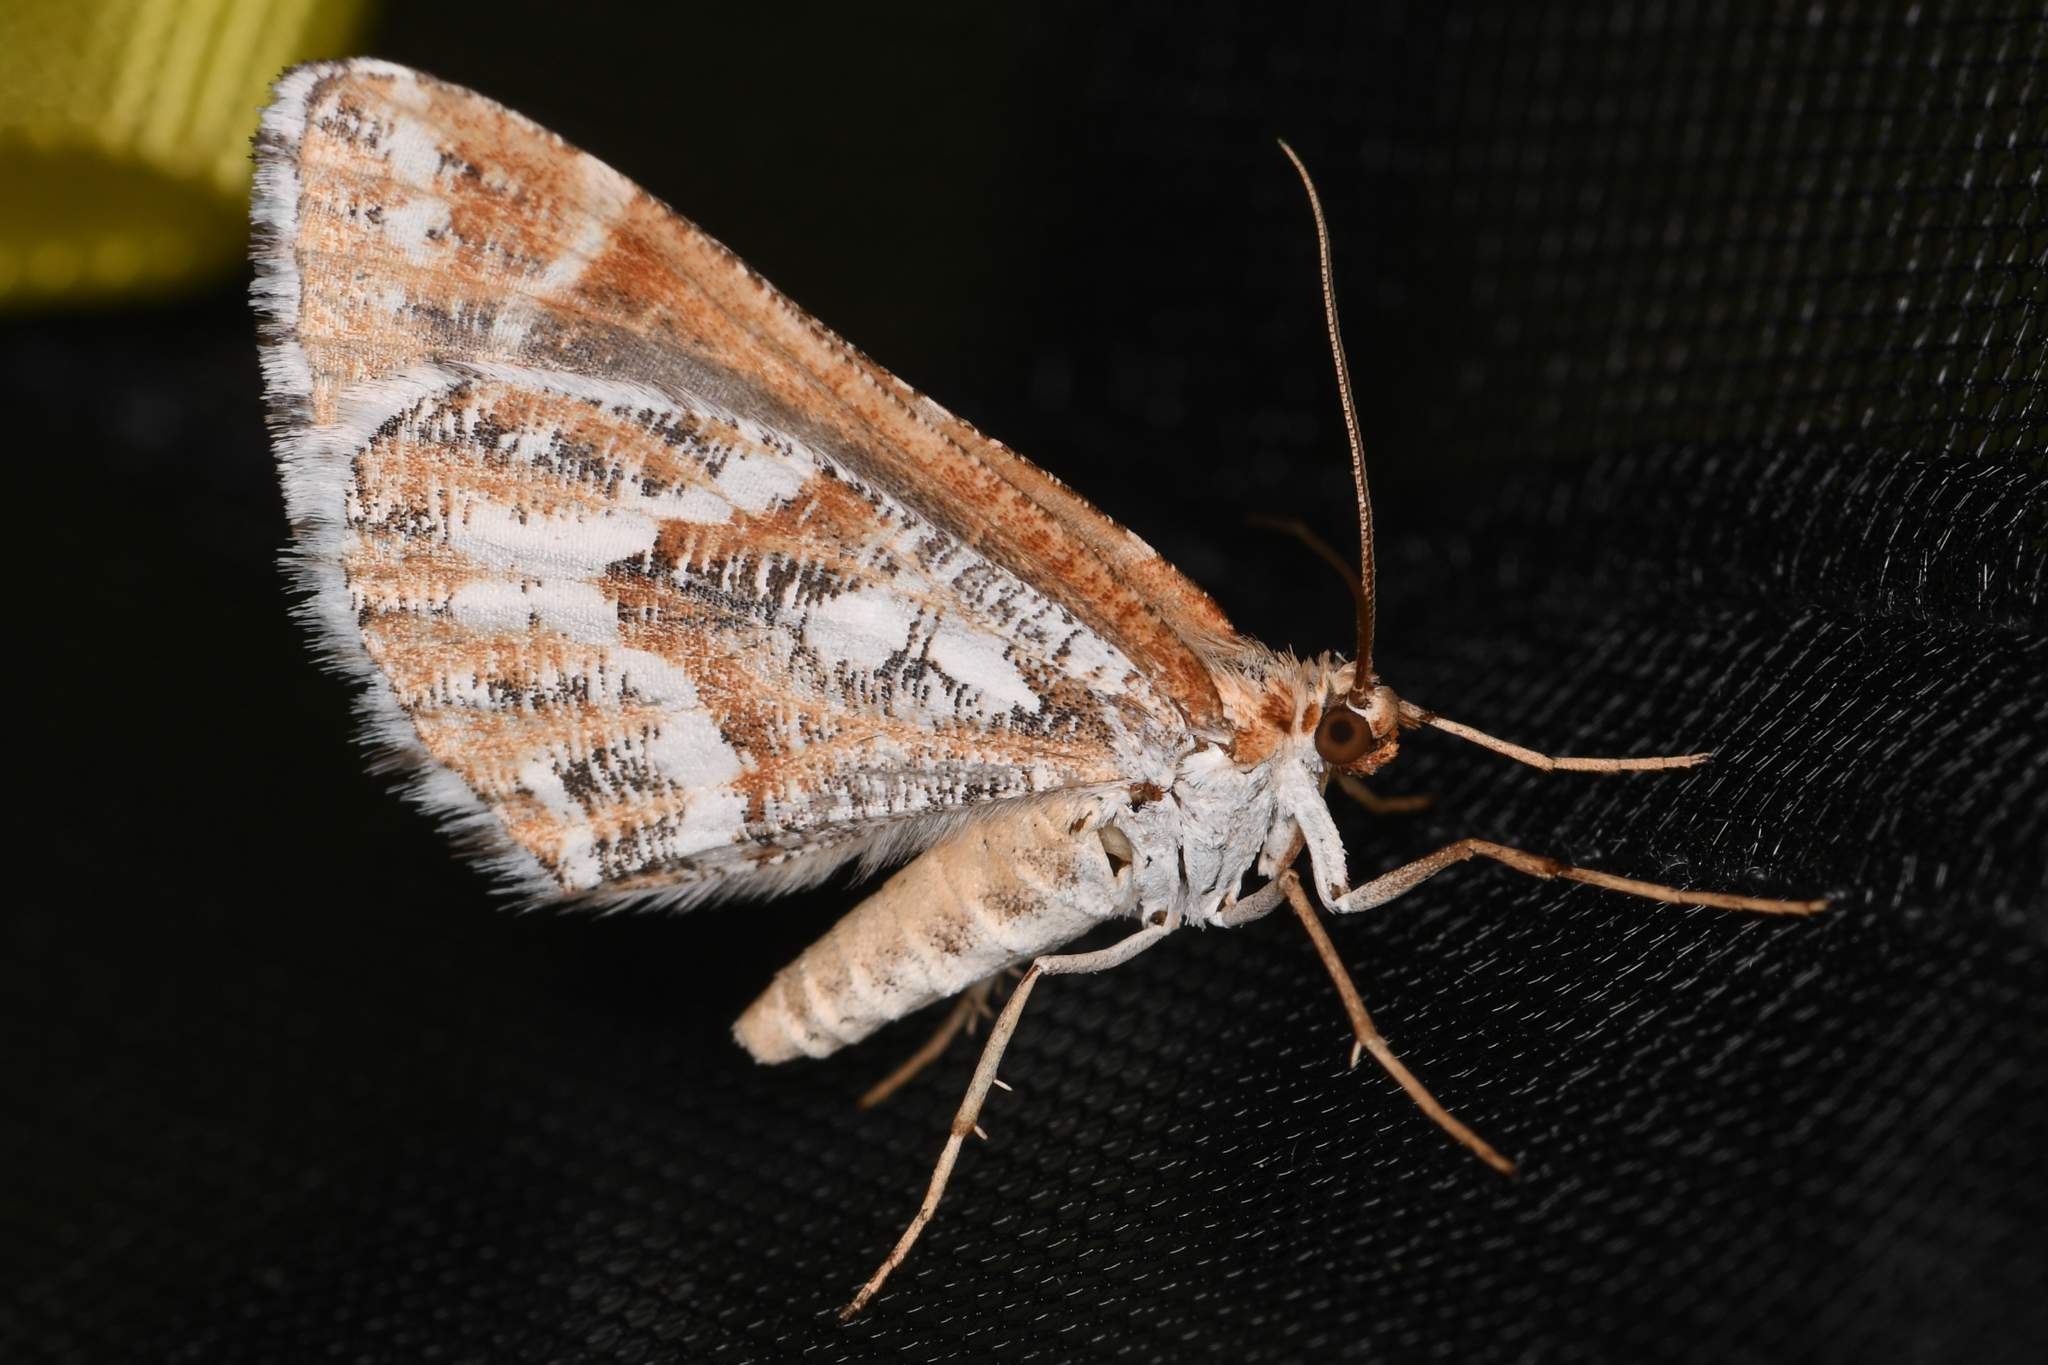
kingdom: Animalia
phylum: Arthropoda
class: Insecta
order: Lepidoptera
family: Geometridae
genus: Stamnodes
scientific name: Stamnodes marmorata
